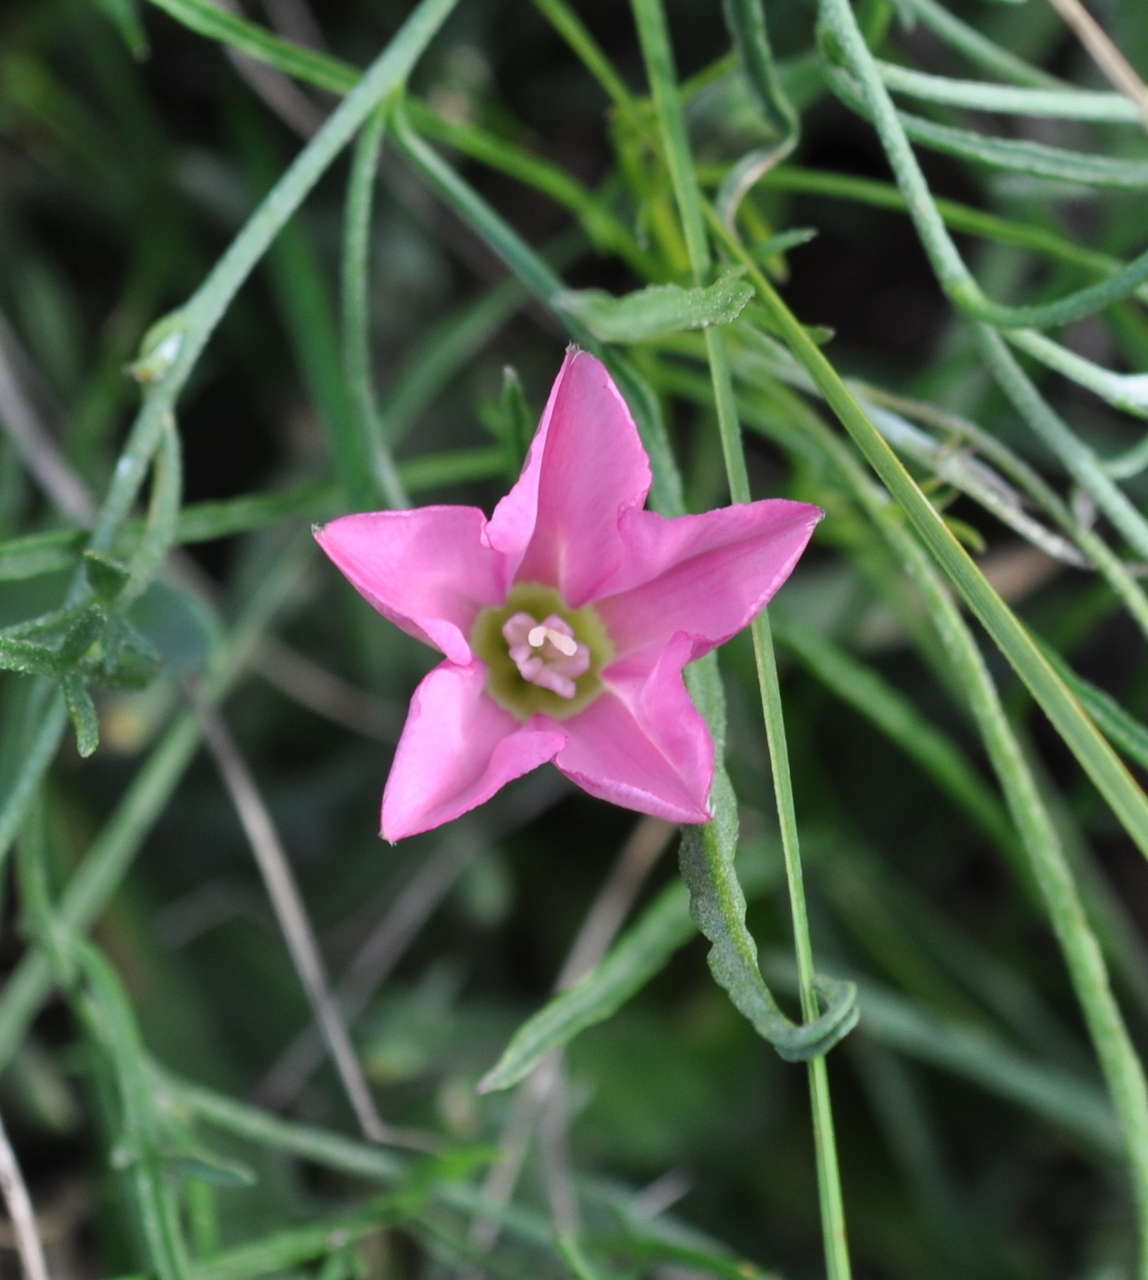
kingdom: Plantae
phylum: Tracheophyta
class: Magnoliopsida
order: Solanales
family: Convolvulaceae
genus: Convolvulus
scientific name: Convolvulus angustissimus
